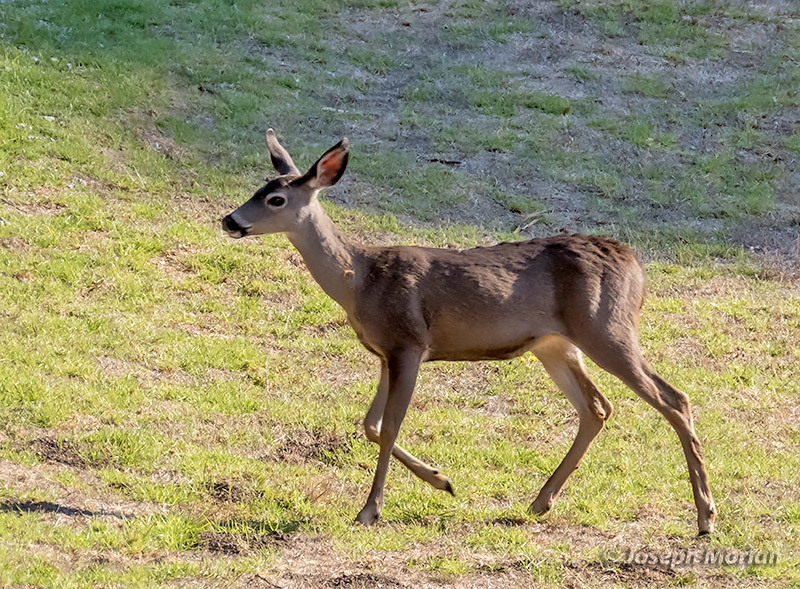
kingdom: Animalia
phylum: Chordata
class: Mammalia
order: Artiodactyla
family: Cervidae
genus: Odocoileus
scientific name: Odocoileus hemionus
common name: Mule deer
